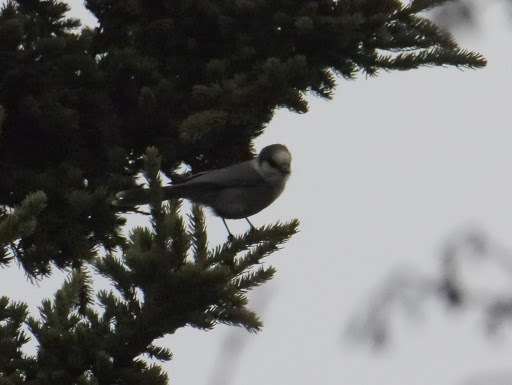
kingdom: Animalia
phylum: Chordata
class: Aves
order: Passeriformes
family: Corvidae
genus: Perisoreus
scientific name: Perisoreus canadensis
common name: Gray jay
